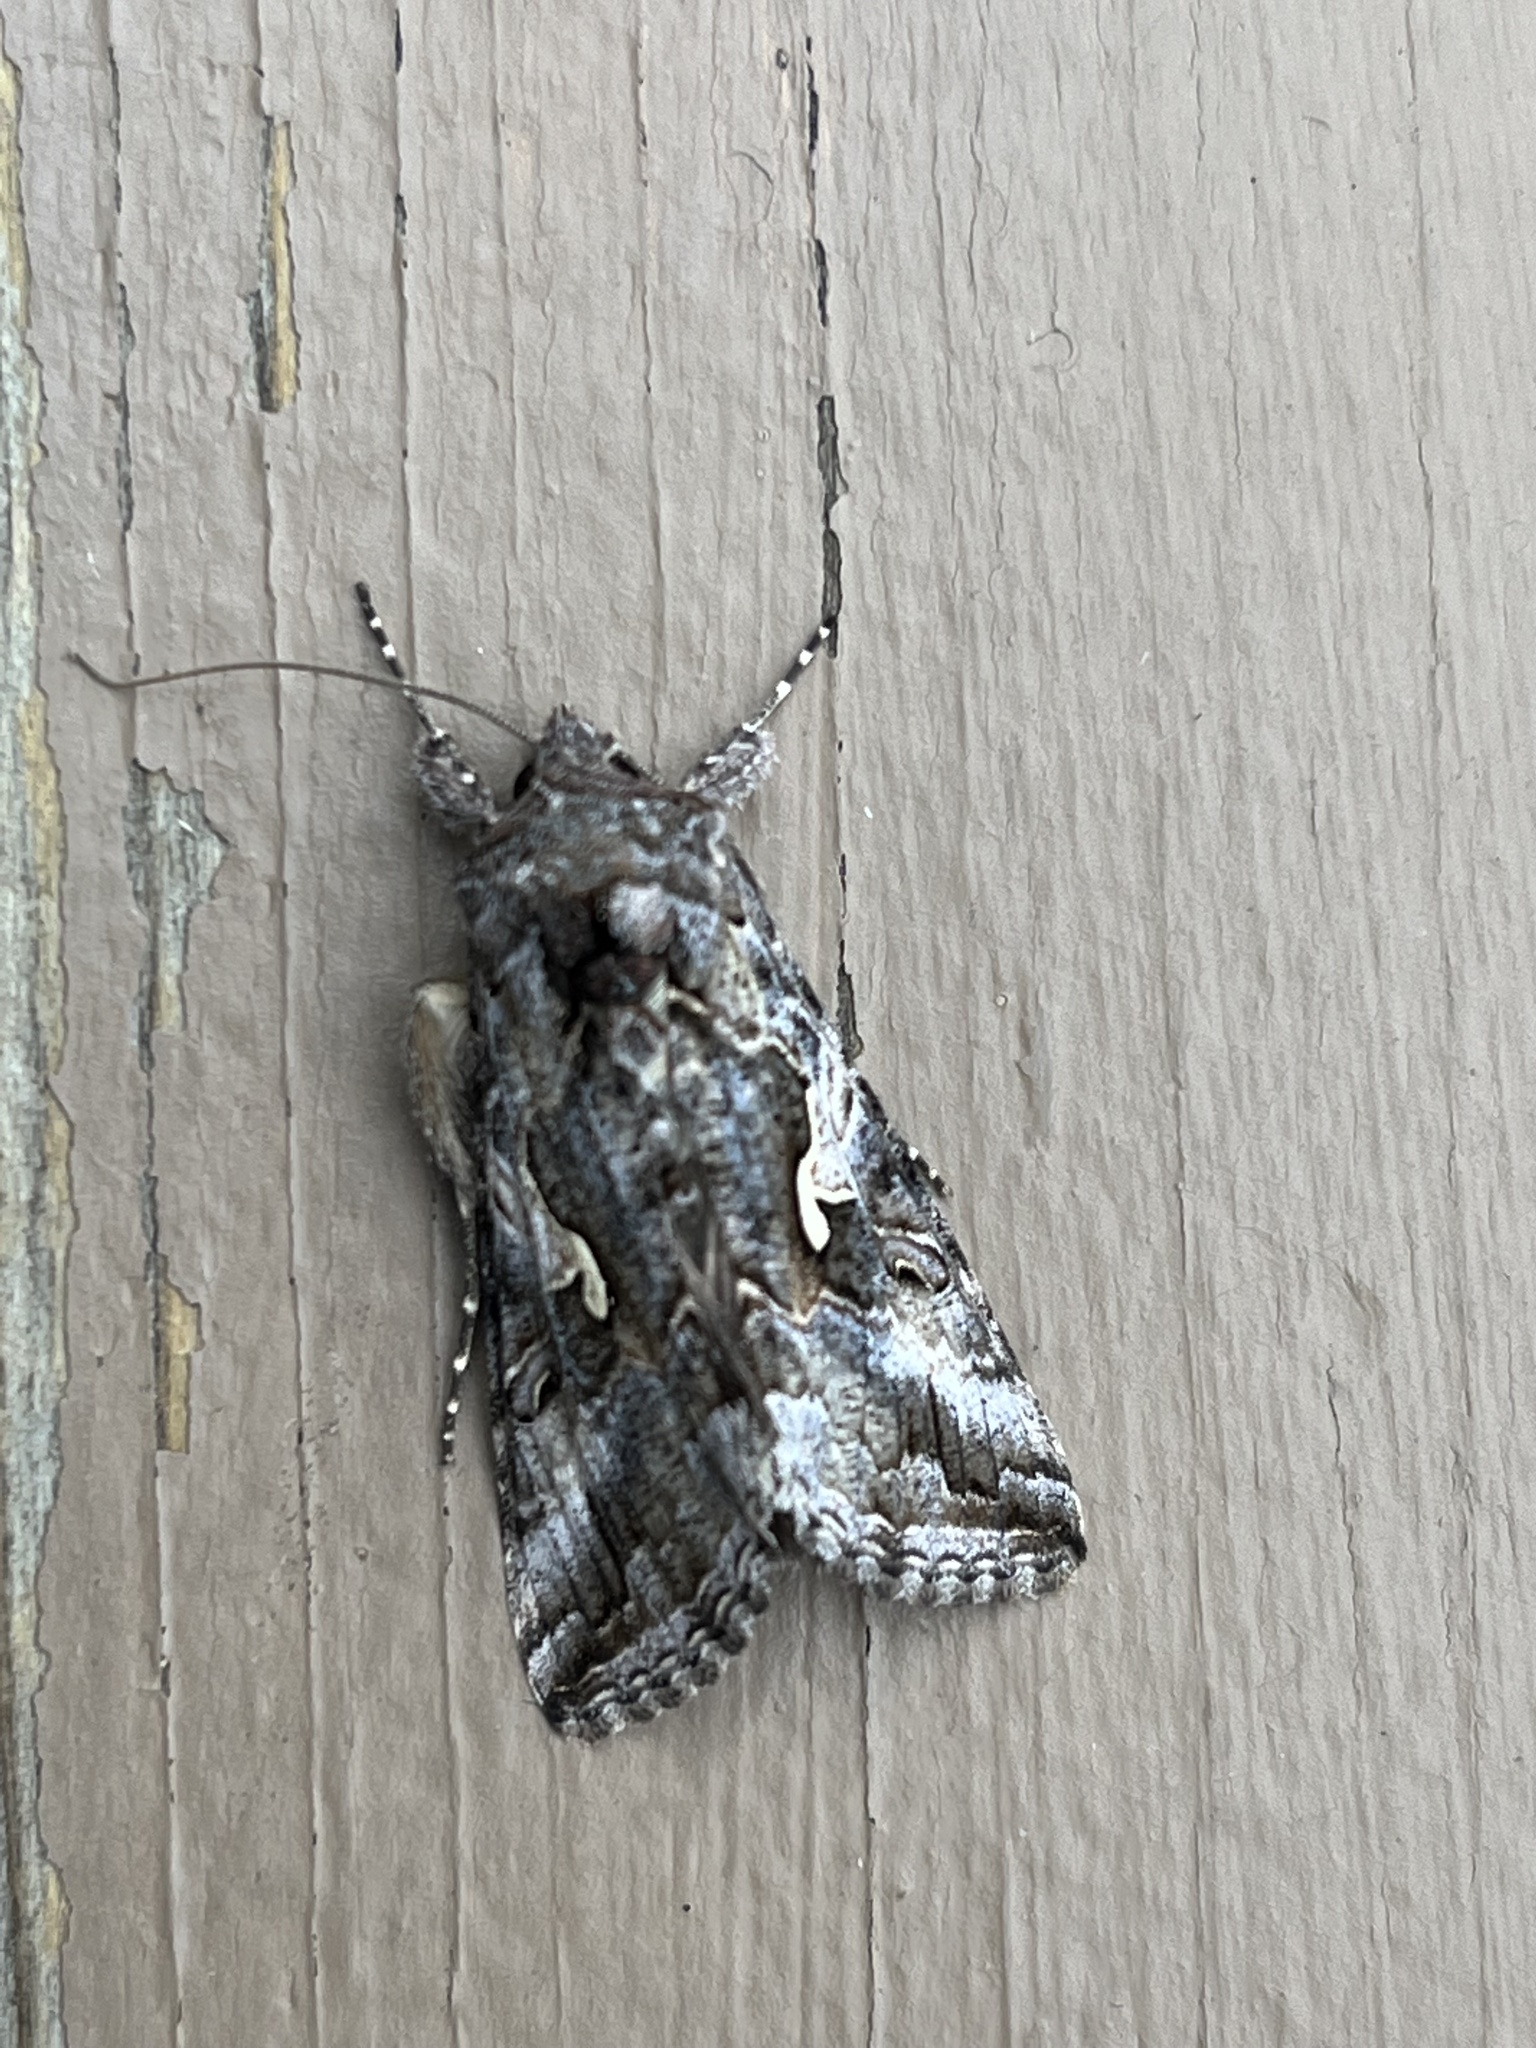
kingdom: Animalia
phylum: Arthropoda
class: Insecta
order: Lepidoptera
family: Noctuidae
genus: Autographa
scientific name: Autographa californica
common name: Alfalfa looper
